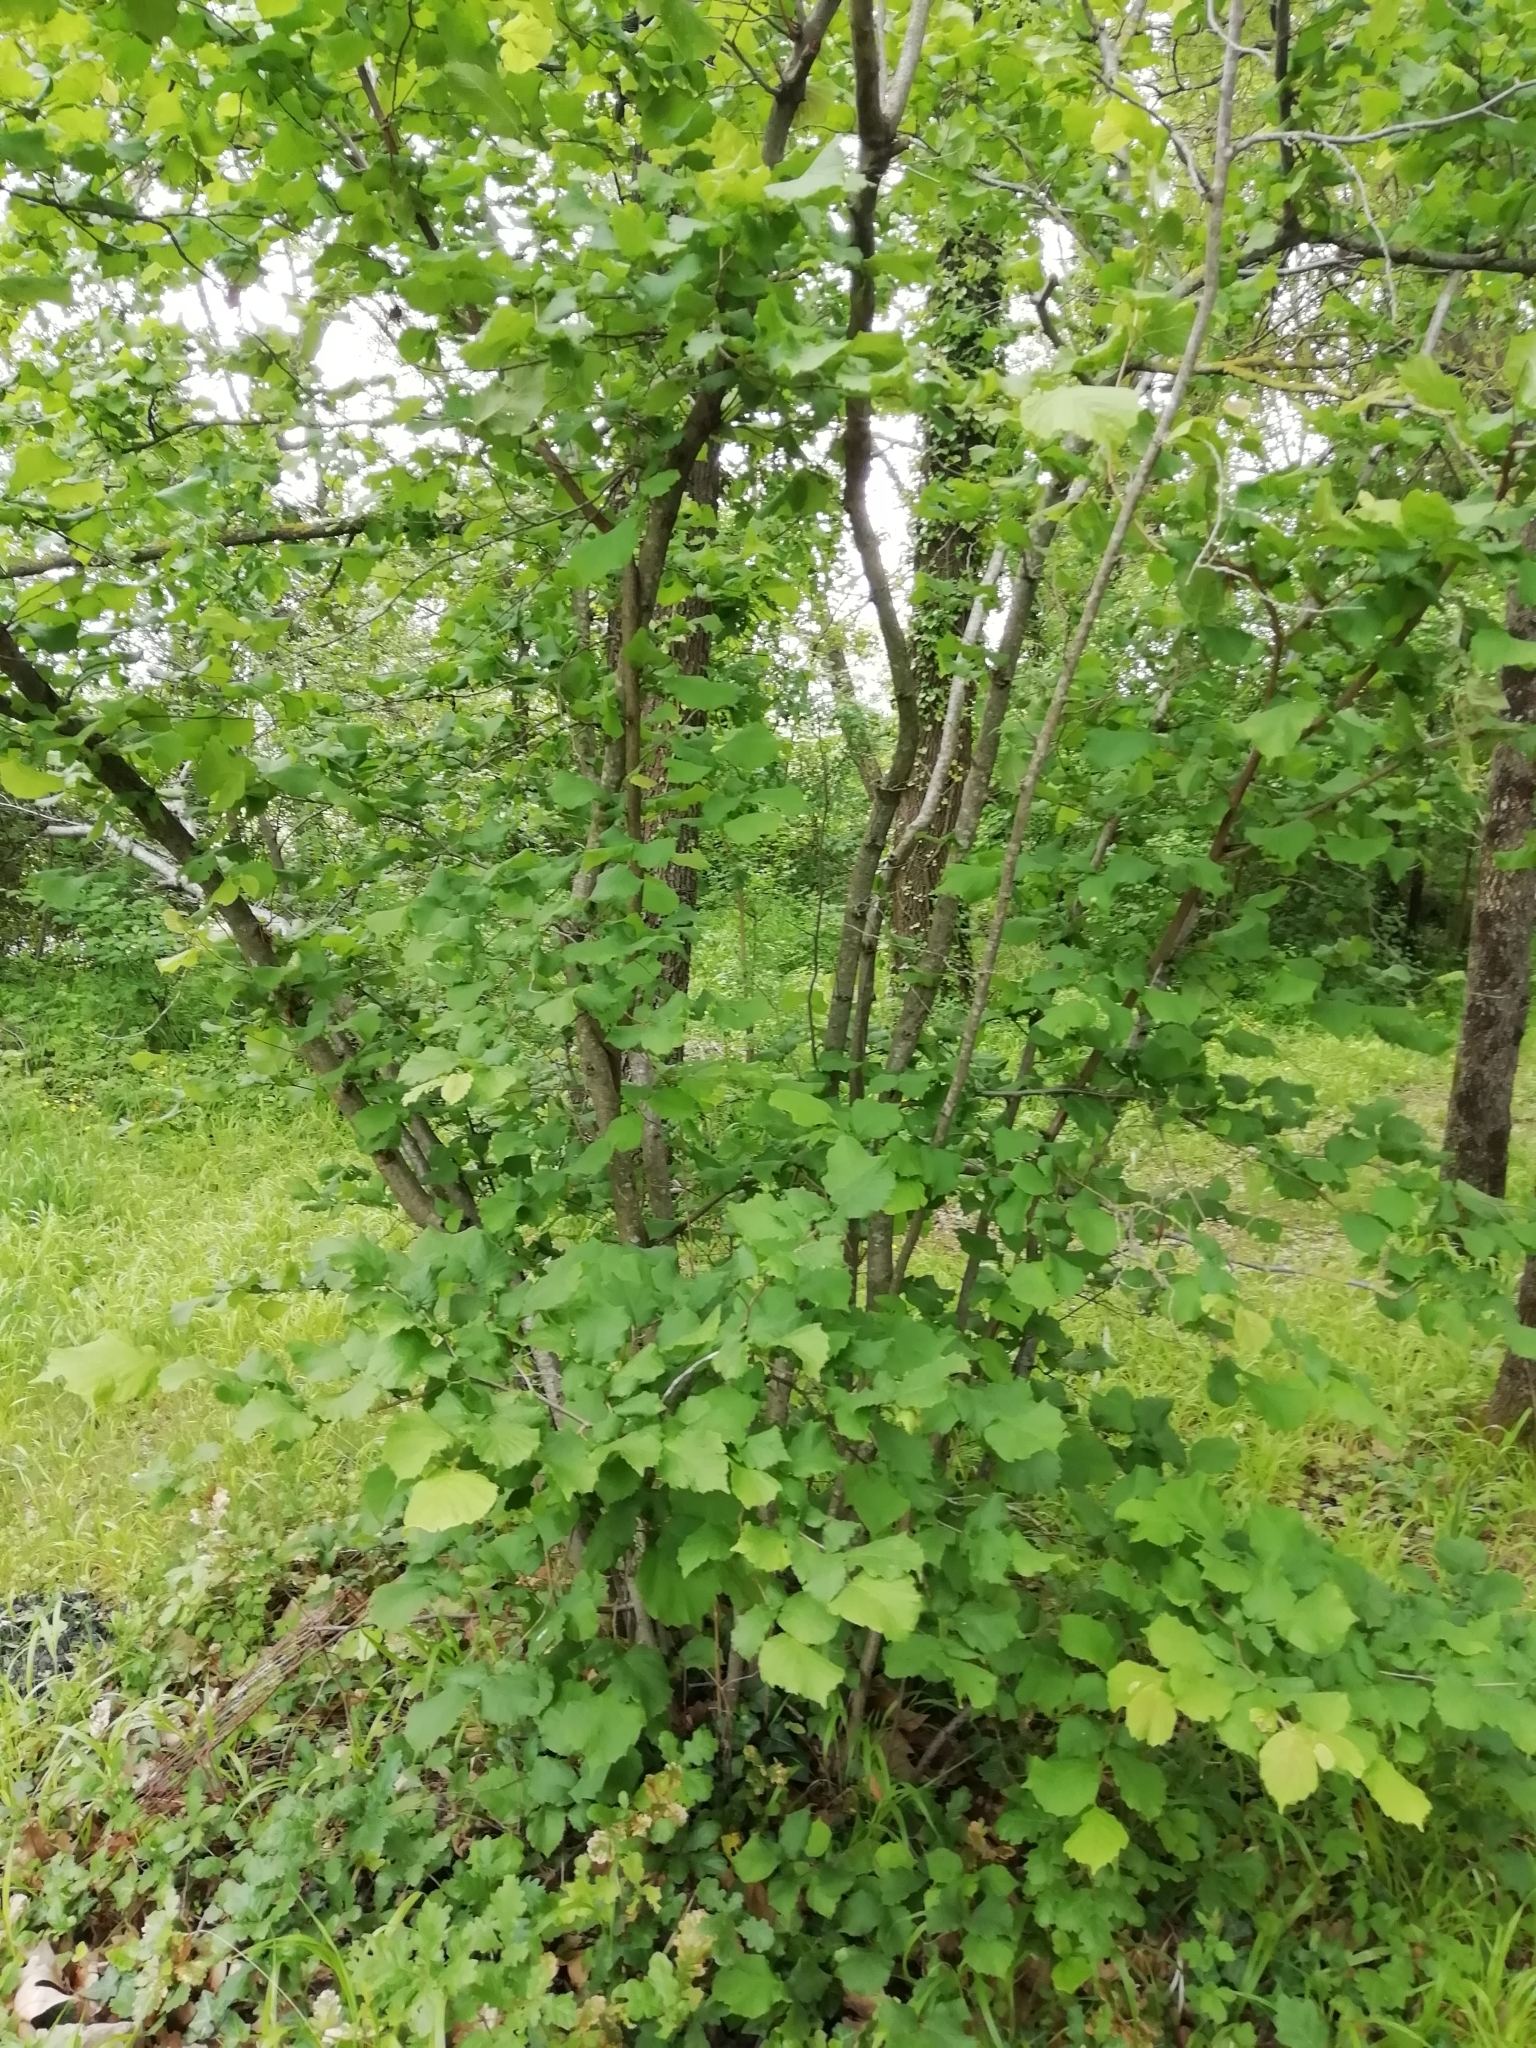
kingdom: Plantae
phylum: Tracheophyta
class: Magnoliopsida
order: Fagales
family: Betulaceae
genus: Corylus
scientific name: Corylus avellana
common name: European hazel
